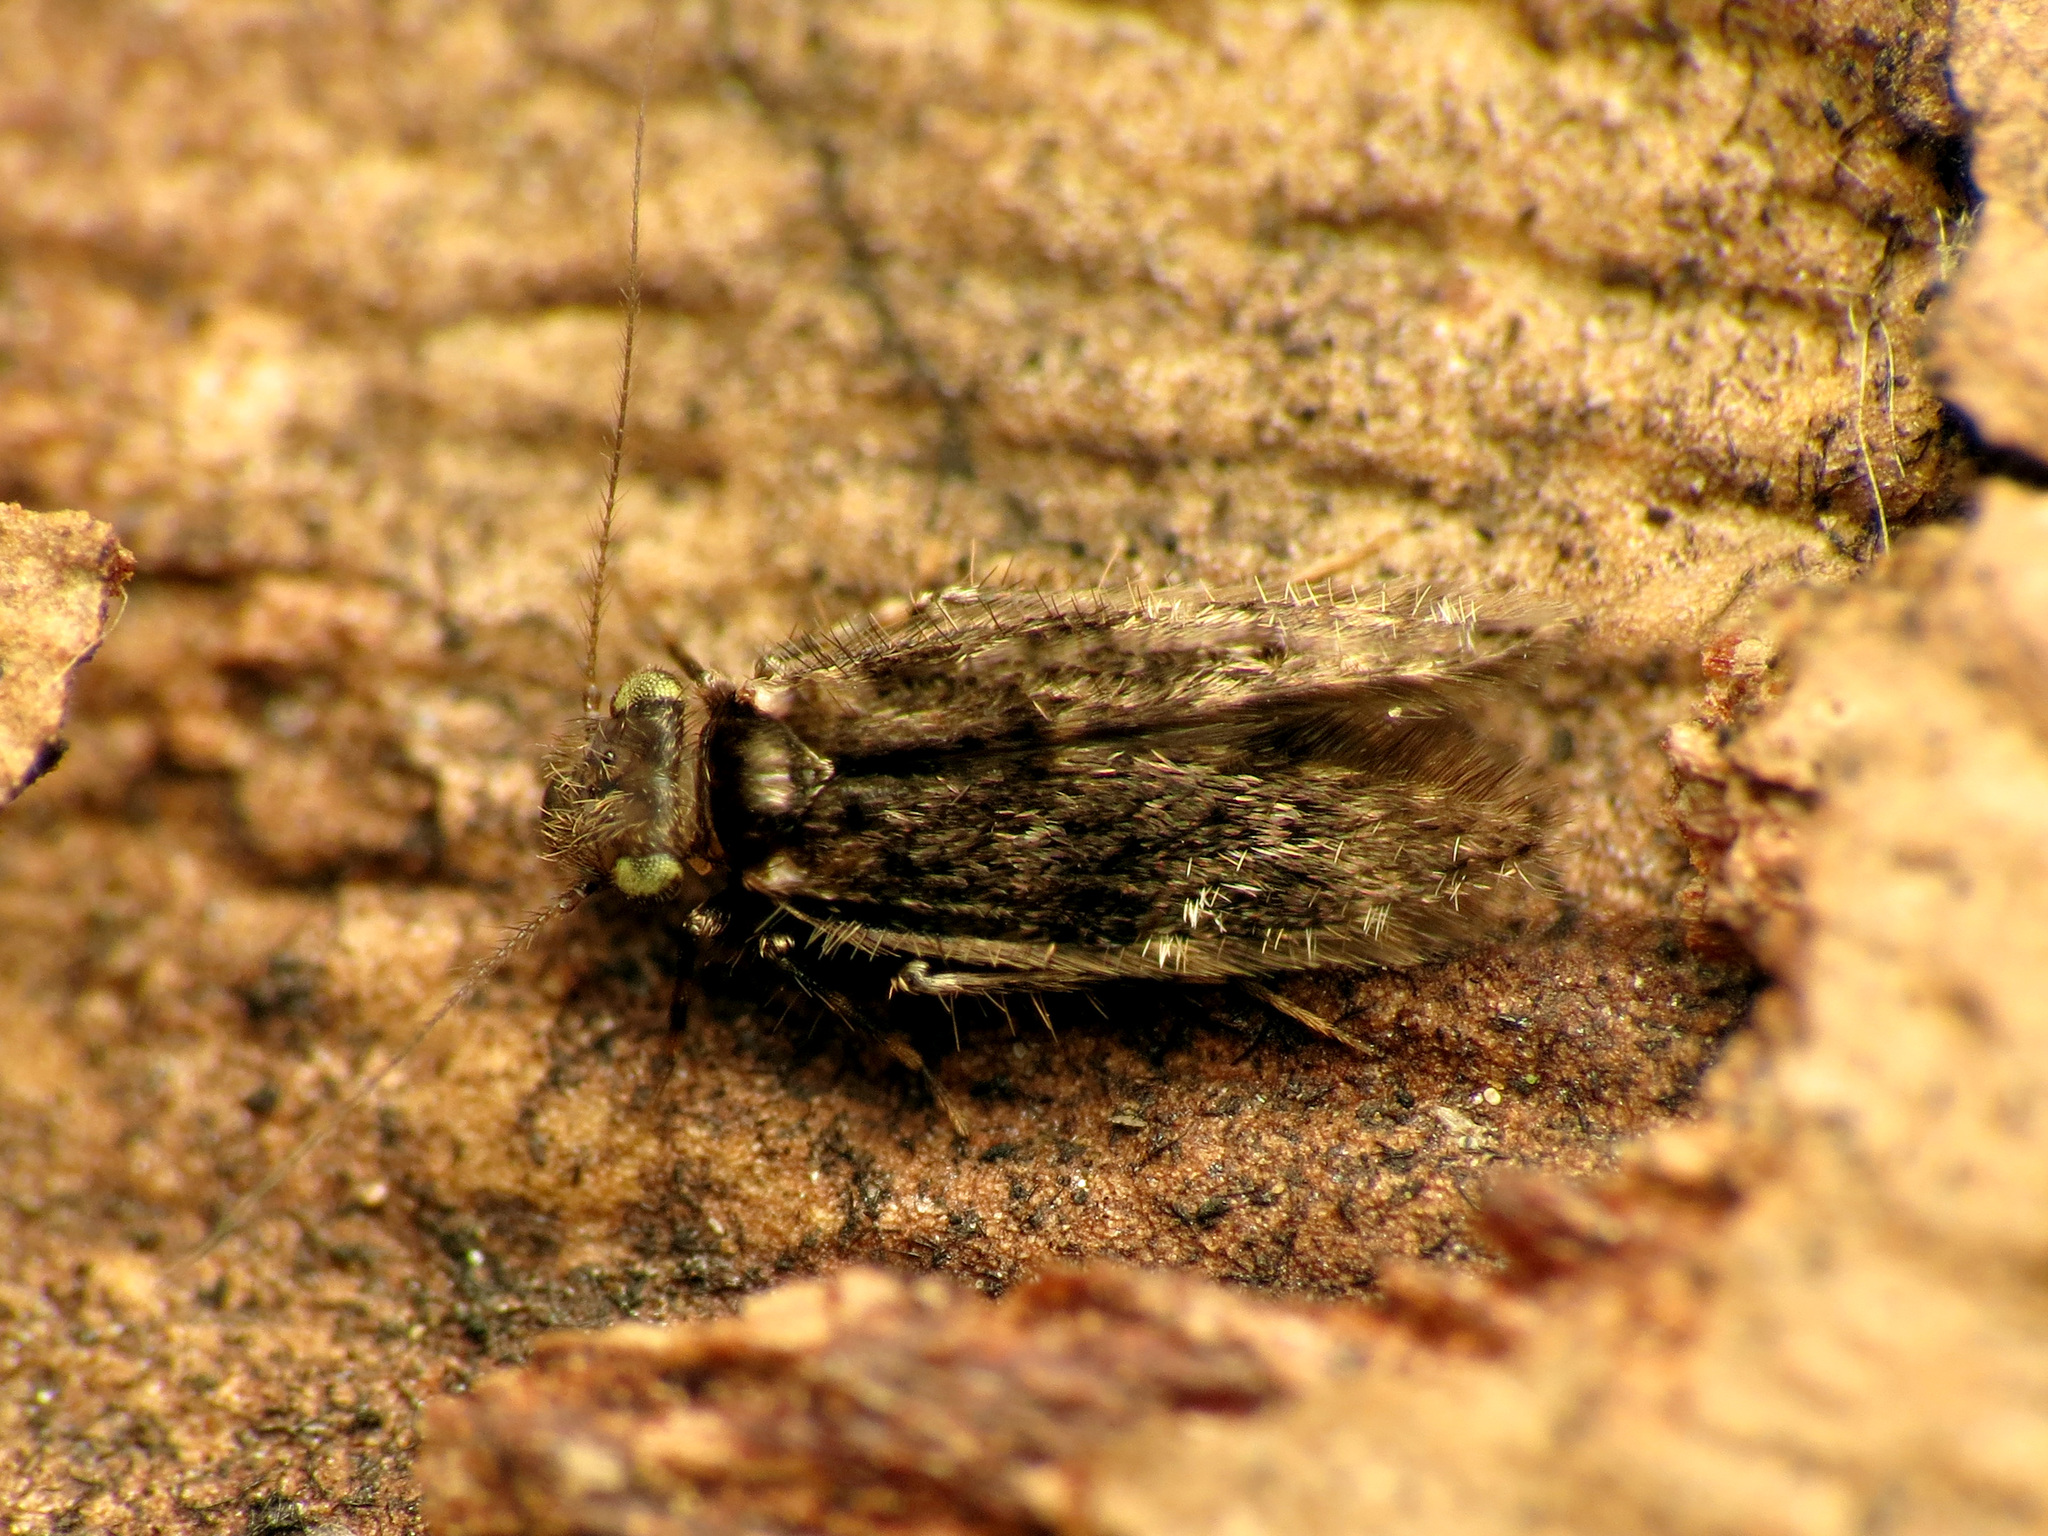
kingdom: Animalia
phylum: Arthropoda
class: Insecta
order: Psocodea
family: Lepidopsocidae
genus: Echmepteryx
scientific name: Echmepteryx hageni
